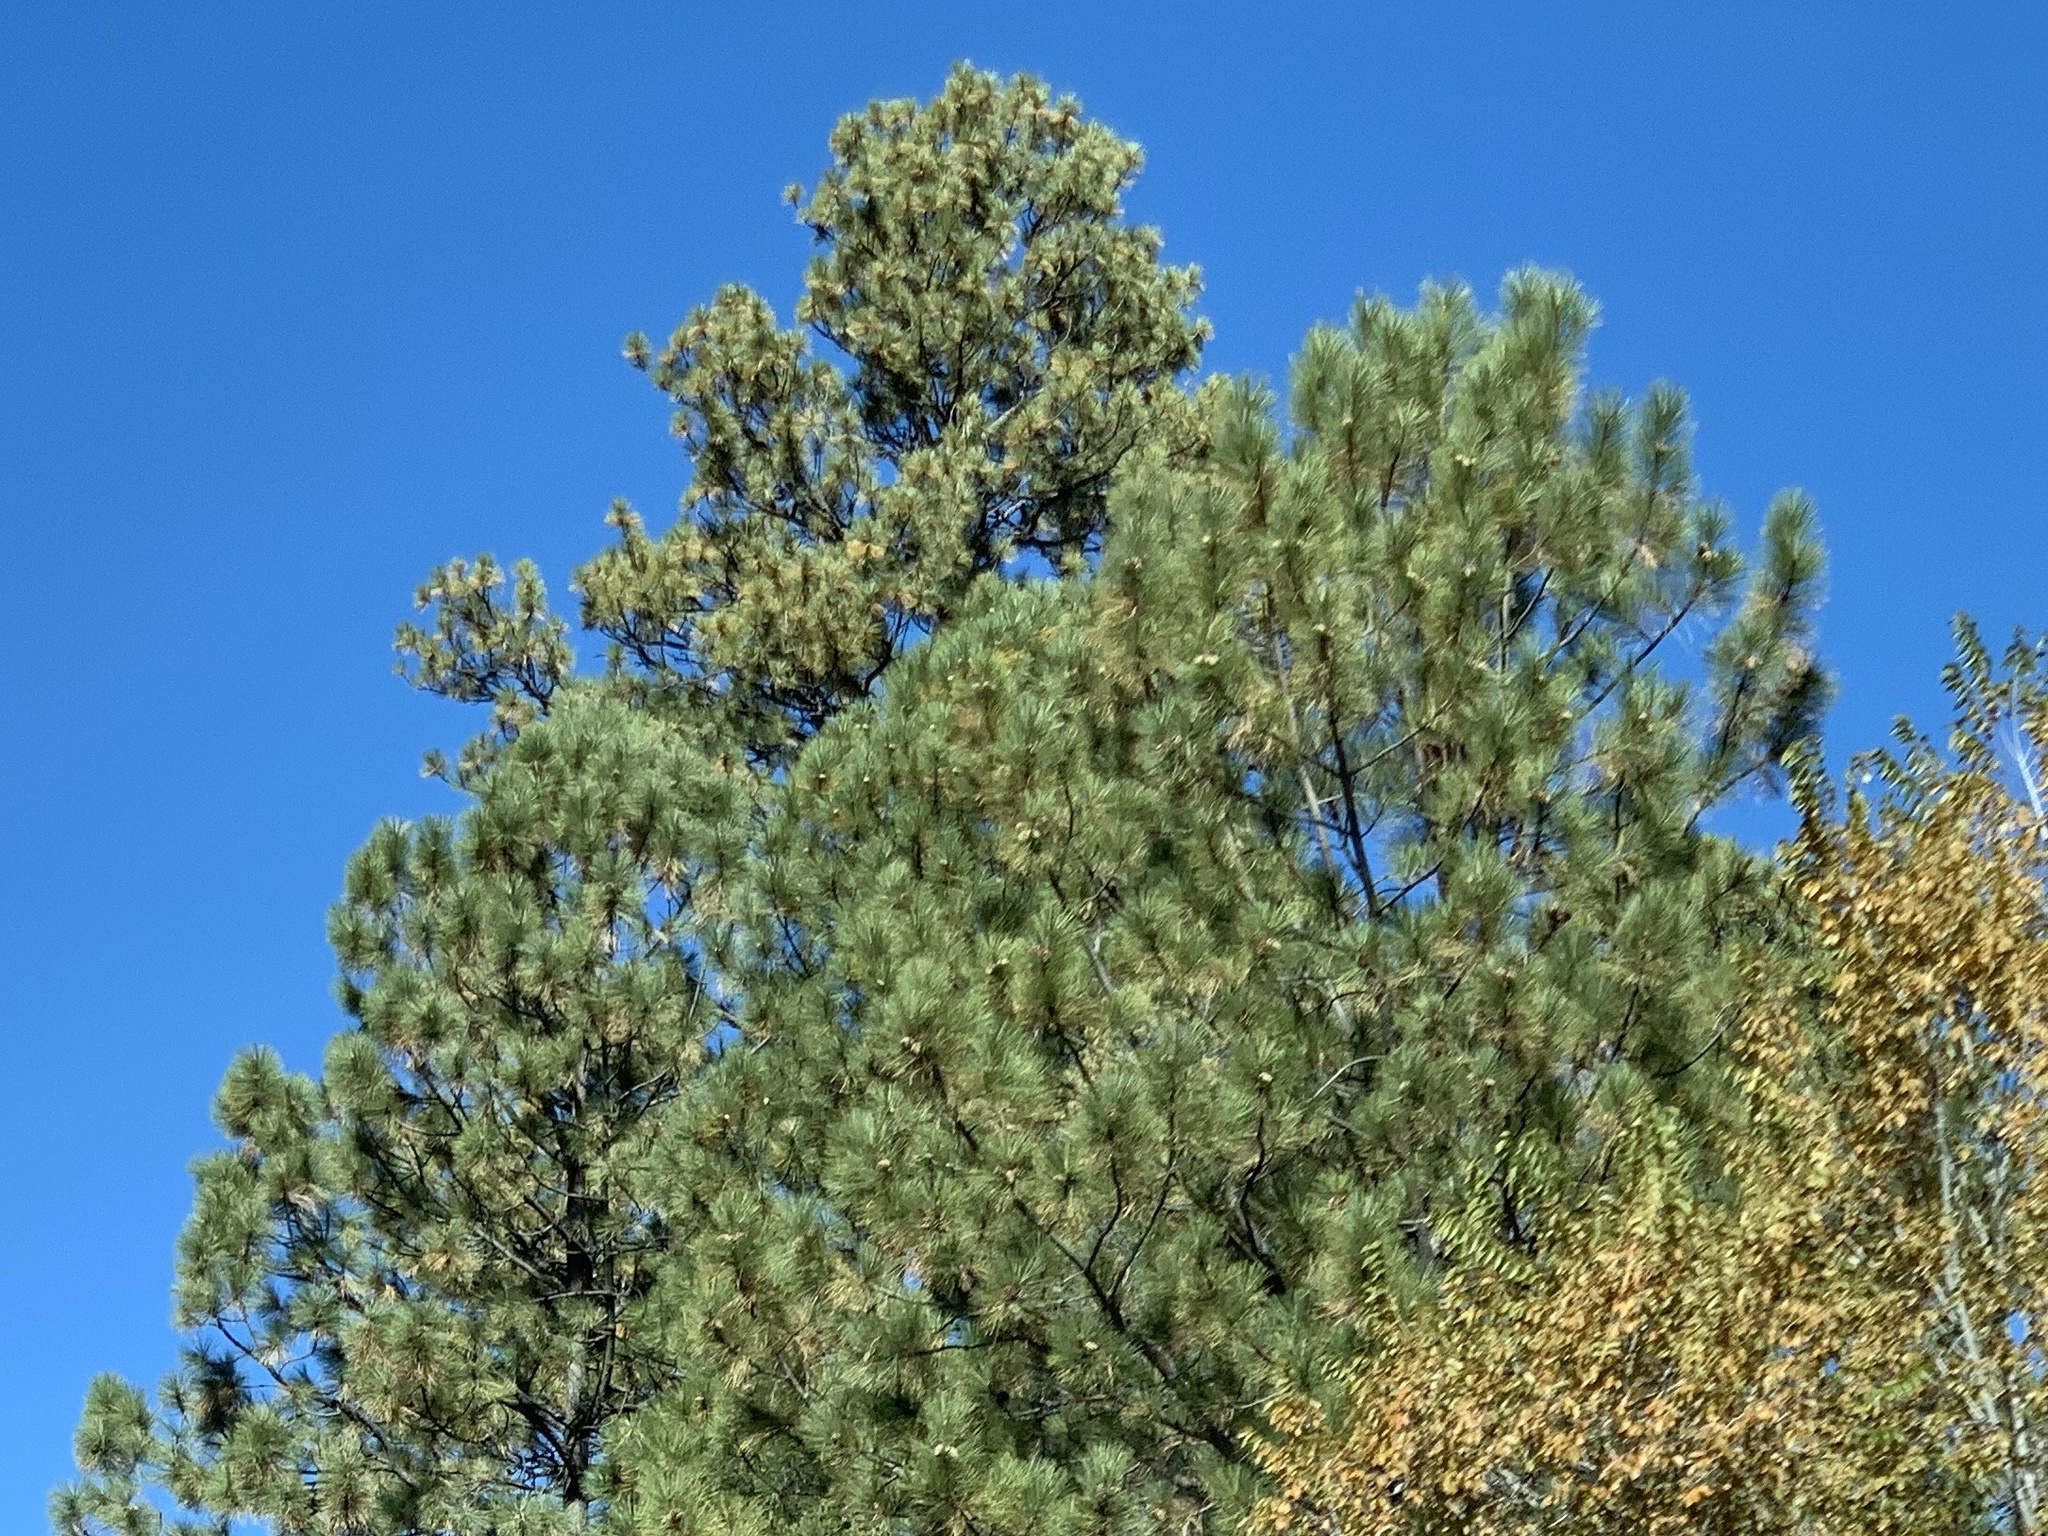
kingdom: Plantae
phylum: Tracheophyta
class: Pinopsida
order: Pinales
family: Pinaceae
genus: Pinus
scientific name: Pinus ponderosa
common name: Western yellow-pine
